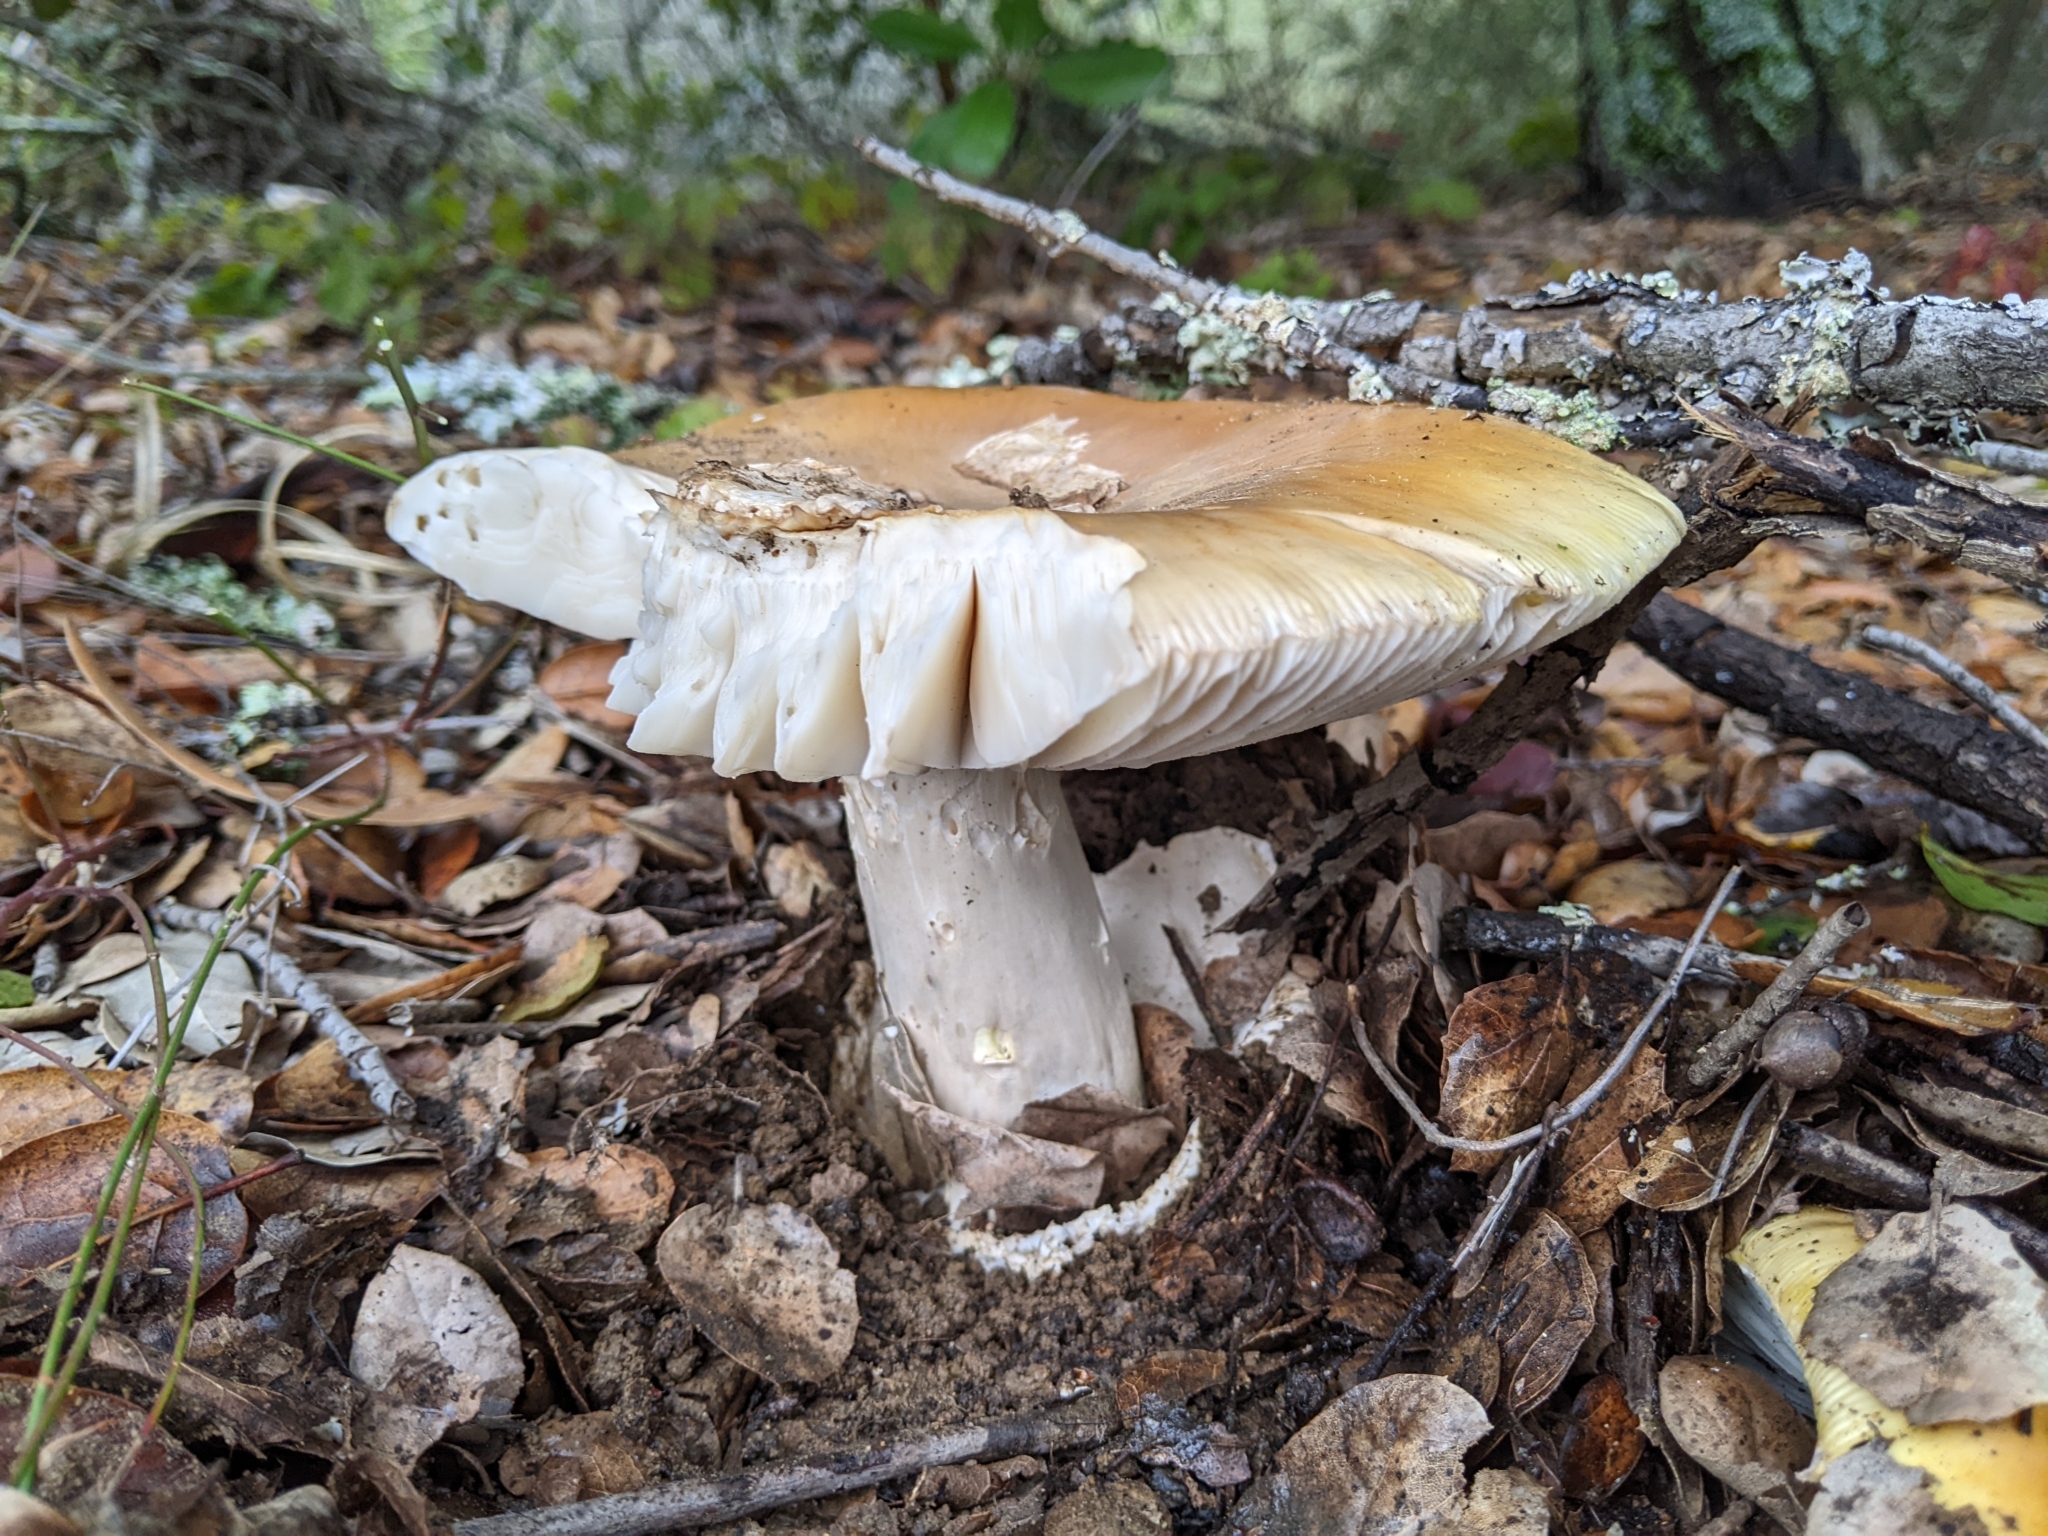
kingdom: Fungi
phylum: Basidiomycota
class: Agaricomycetes
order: Agaricales
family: Amanitaceae
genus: Amanita
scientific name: Amanita calyptroderma
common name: Coccora
